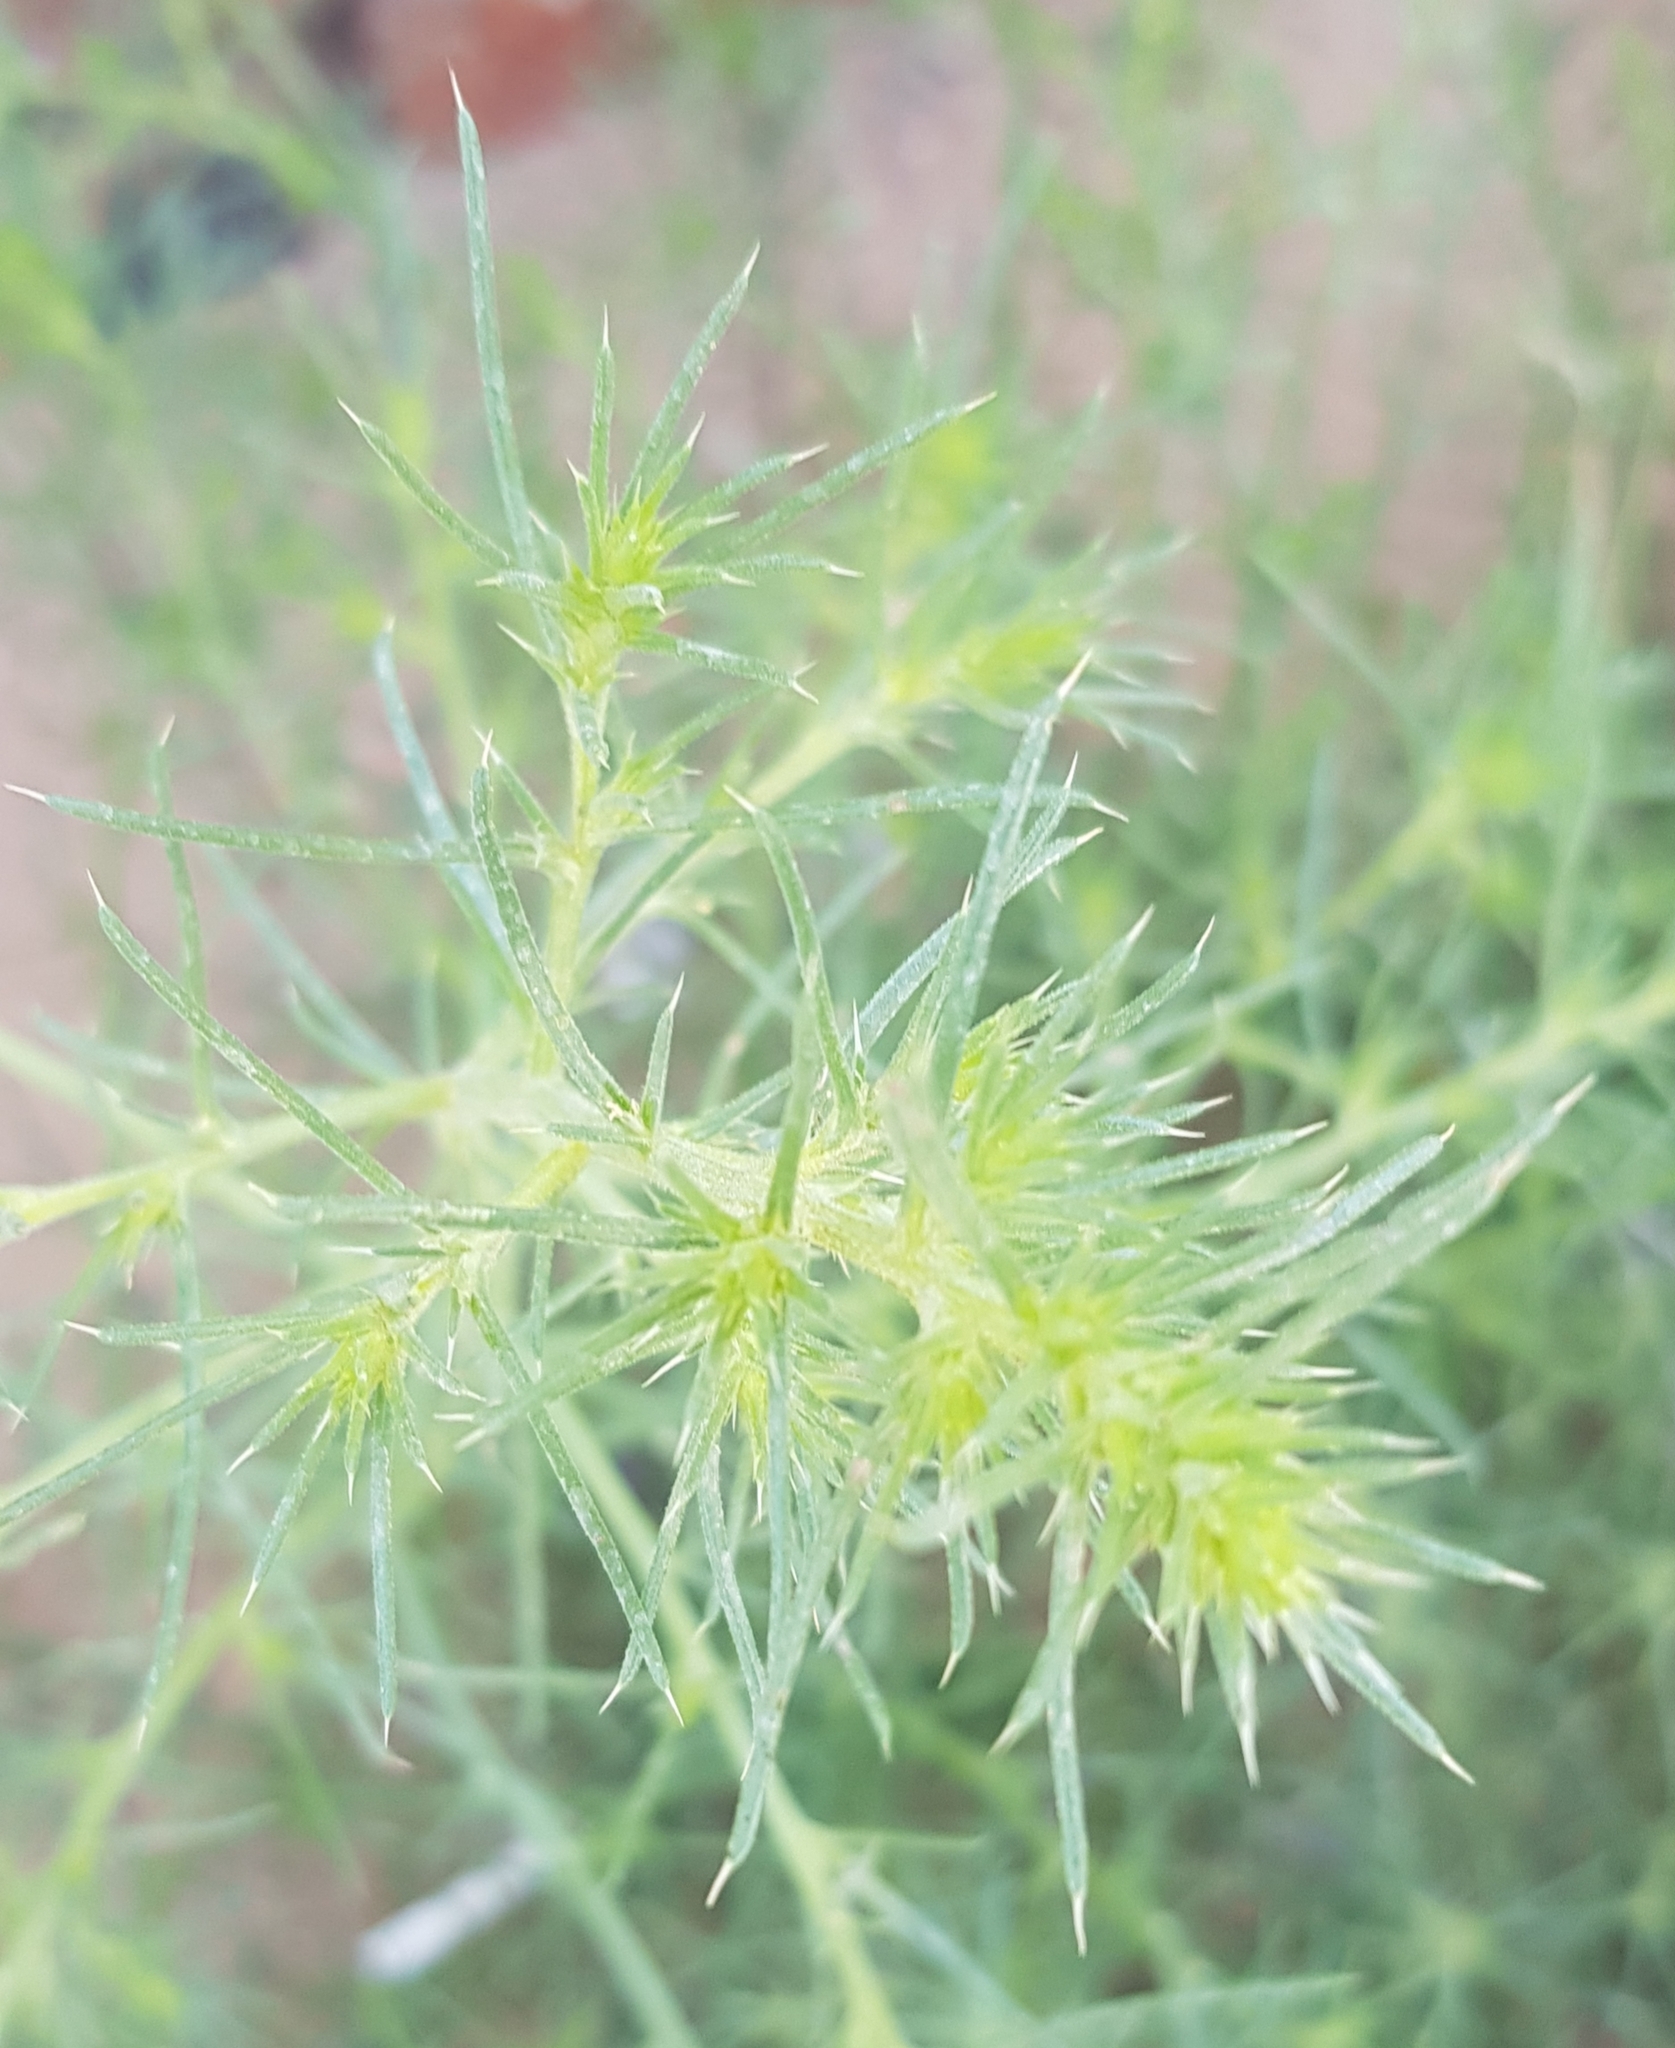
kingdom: Plantae
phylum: Tracheophyta
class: Magnoliopsida
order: Caryophyllales
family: Amaranthaceae
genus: Salsola
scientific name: Salsola tragus
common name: Prickly russian thistle
